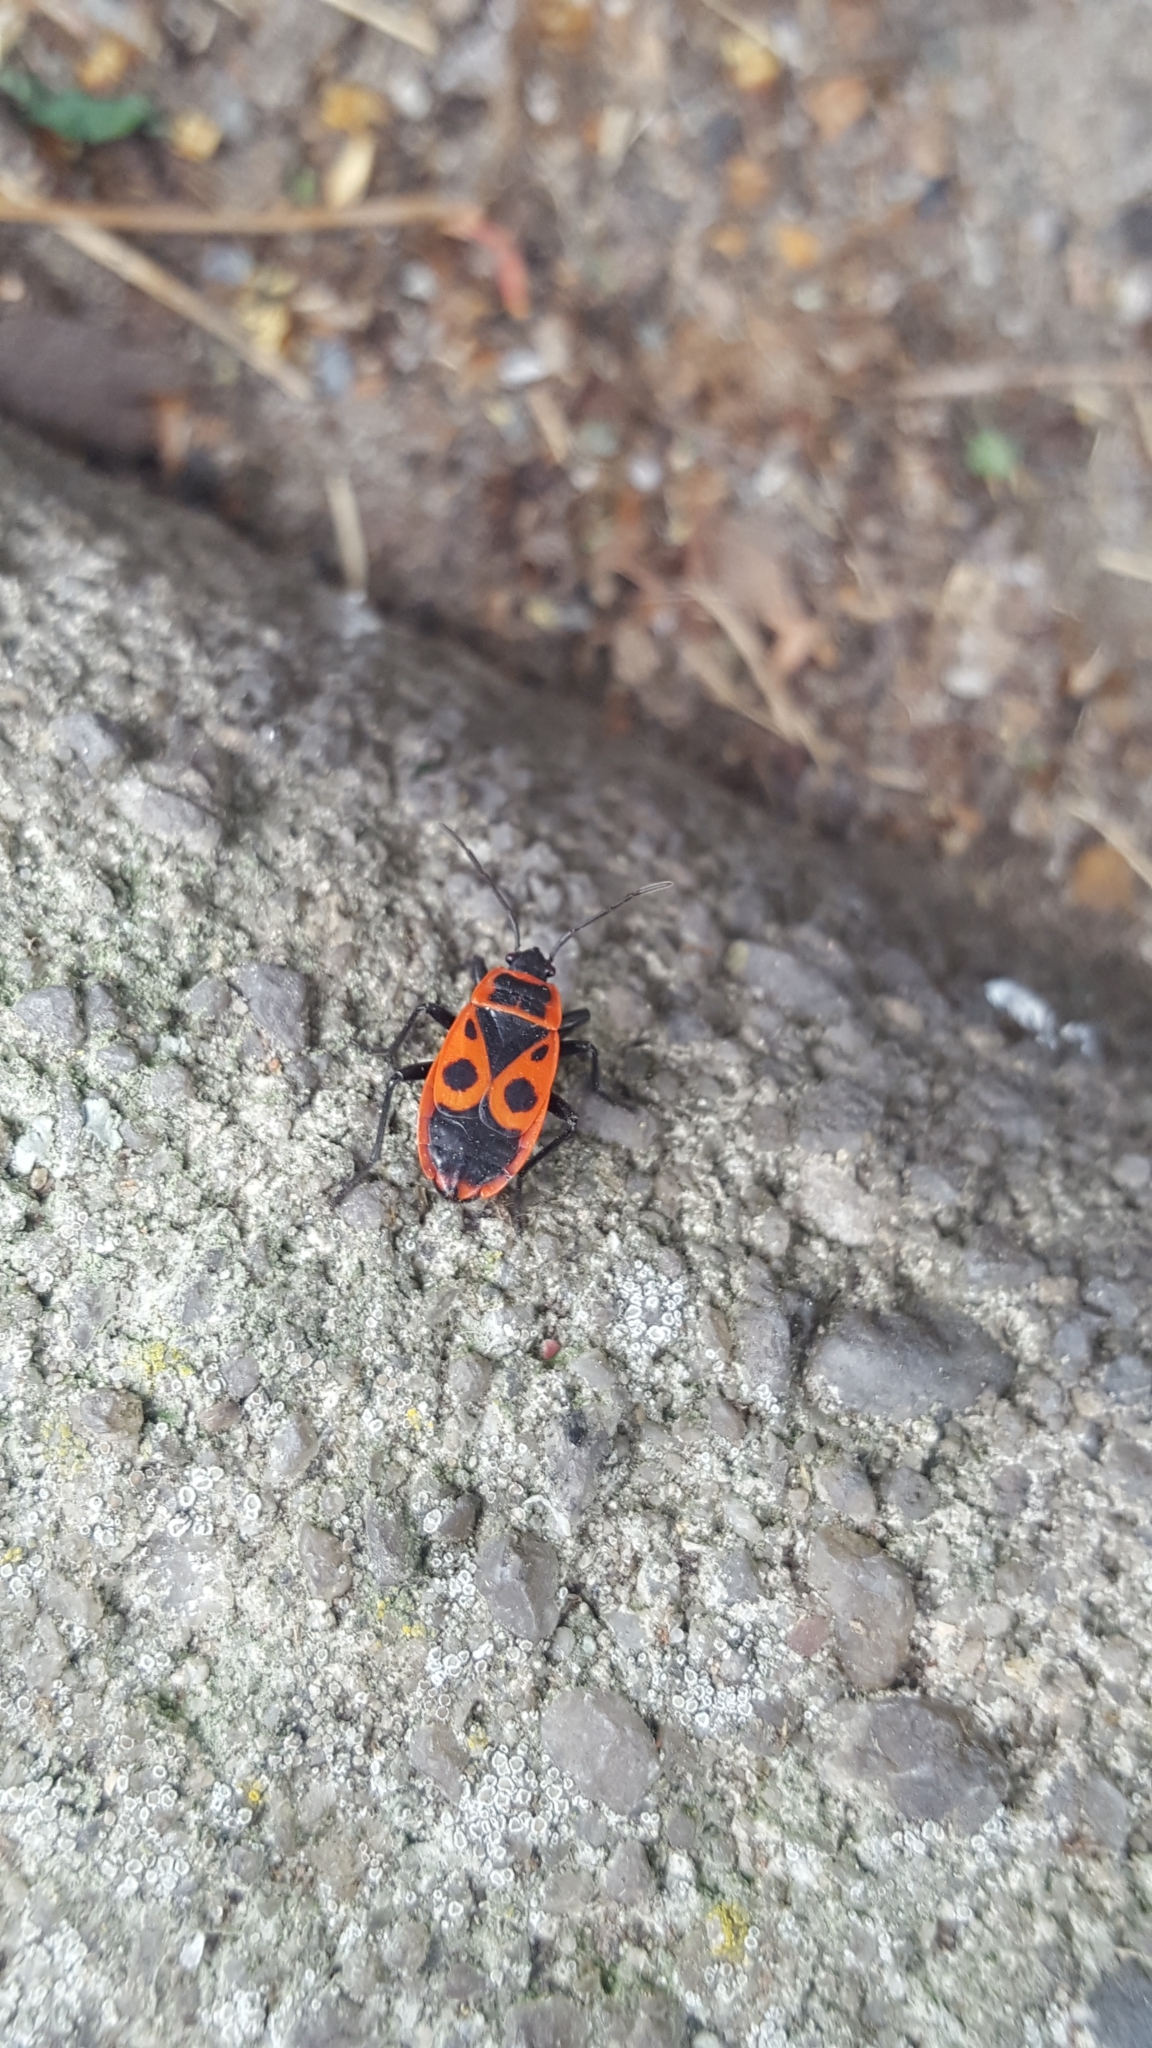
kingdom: Animalia
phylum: Arthropoda
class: Insecta
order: Hemiptera
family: Pyrrhocoridae
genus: Pyrrhocoris
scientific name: Pyrrhocoris apterus
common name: Firebug
